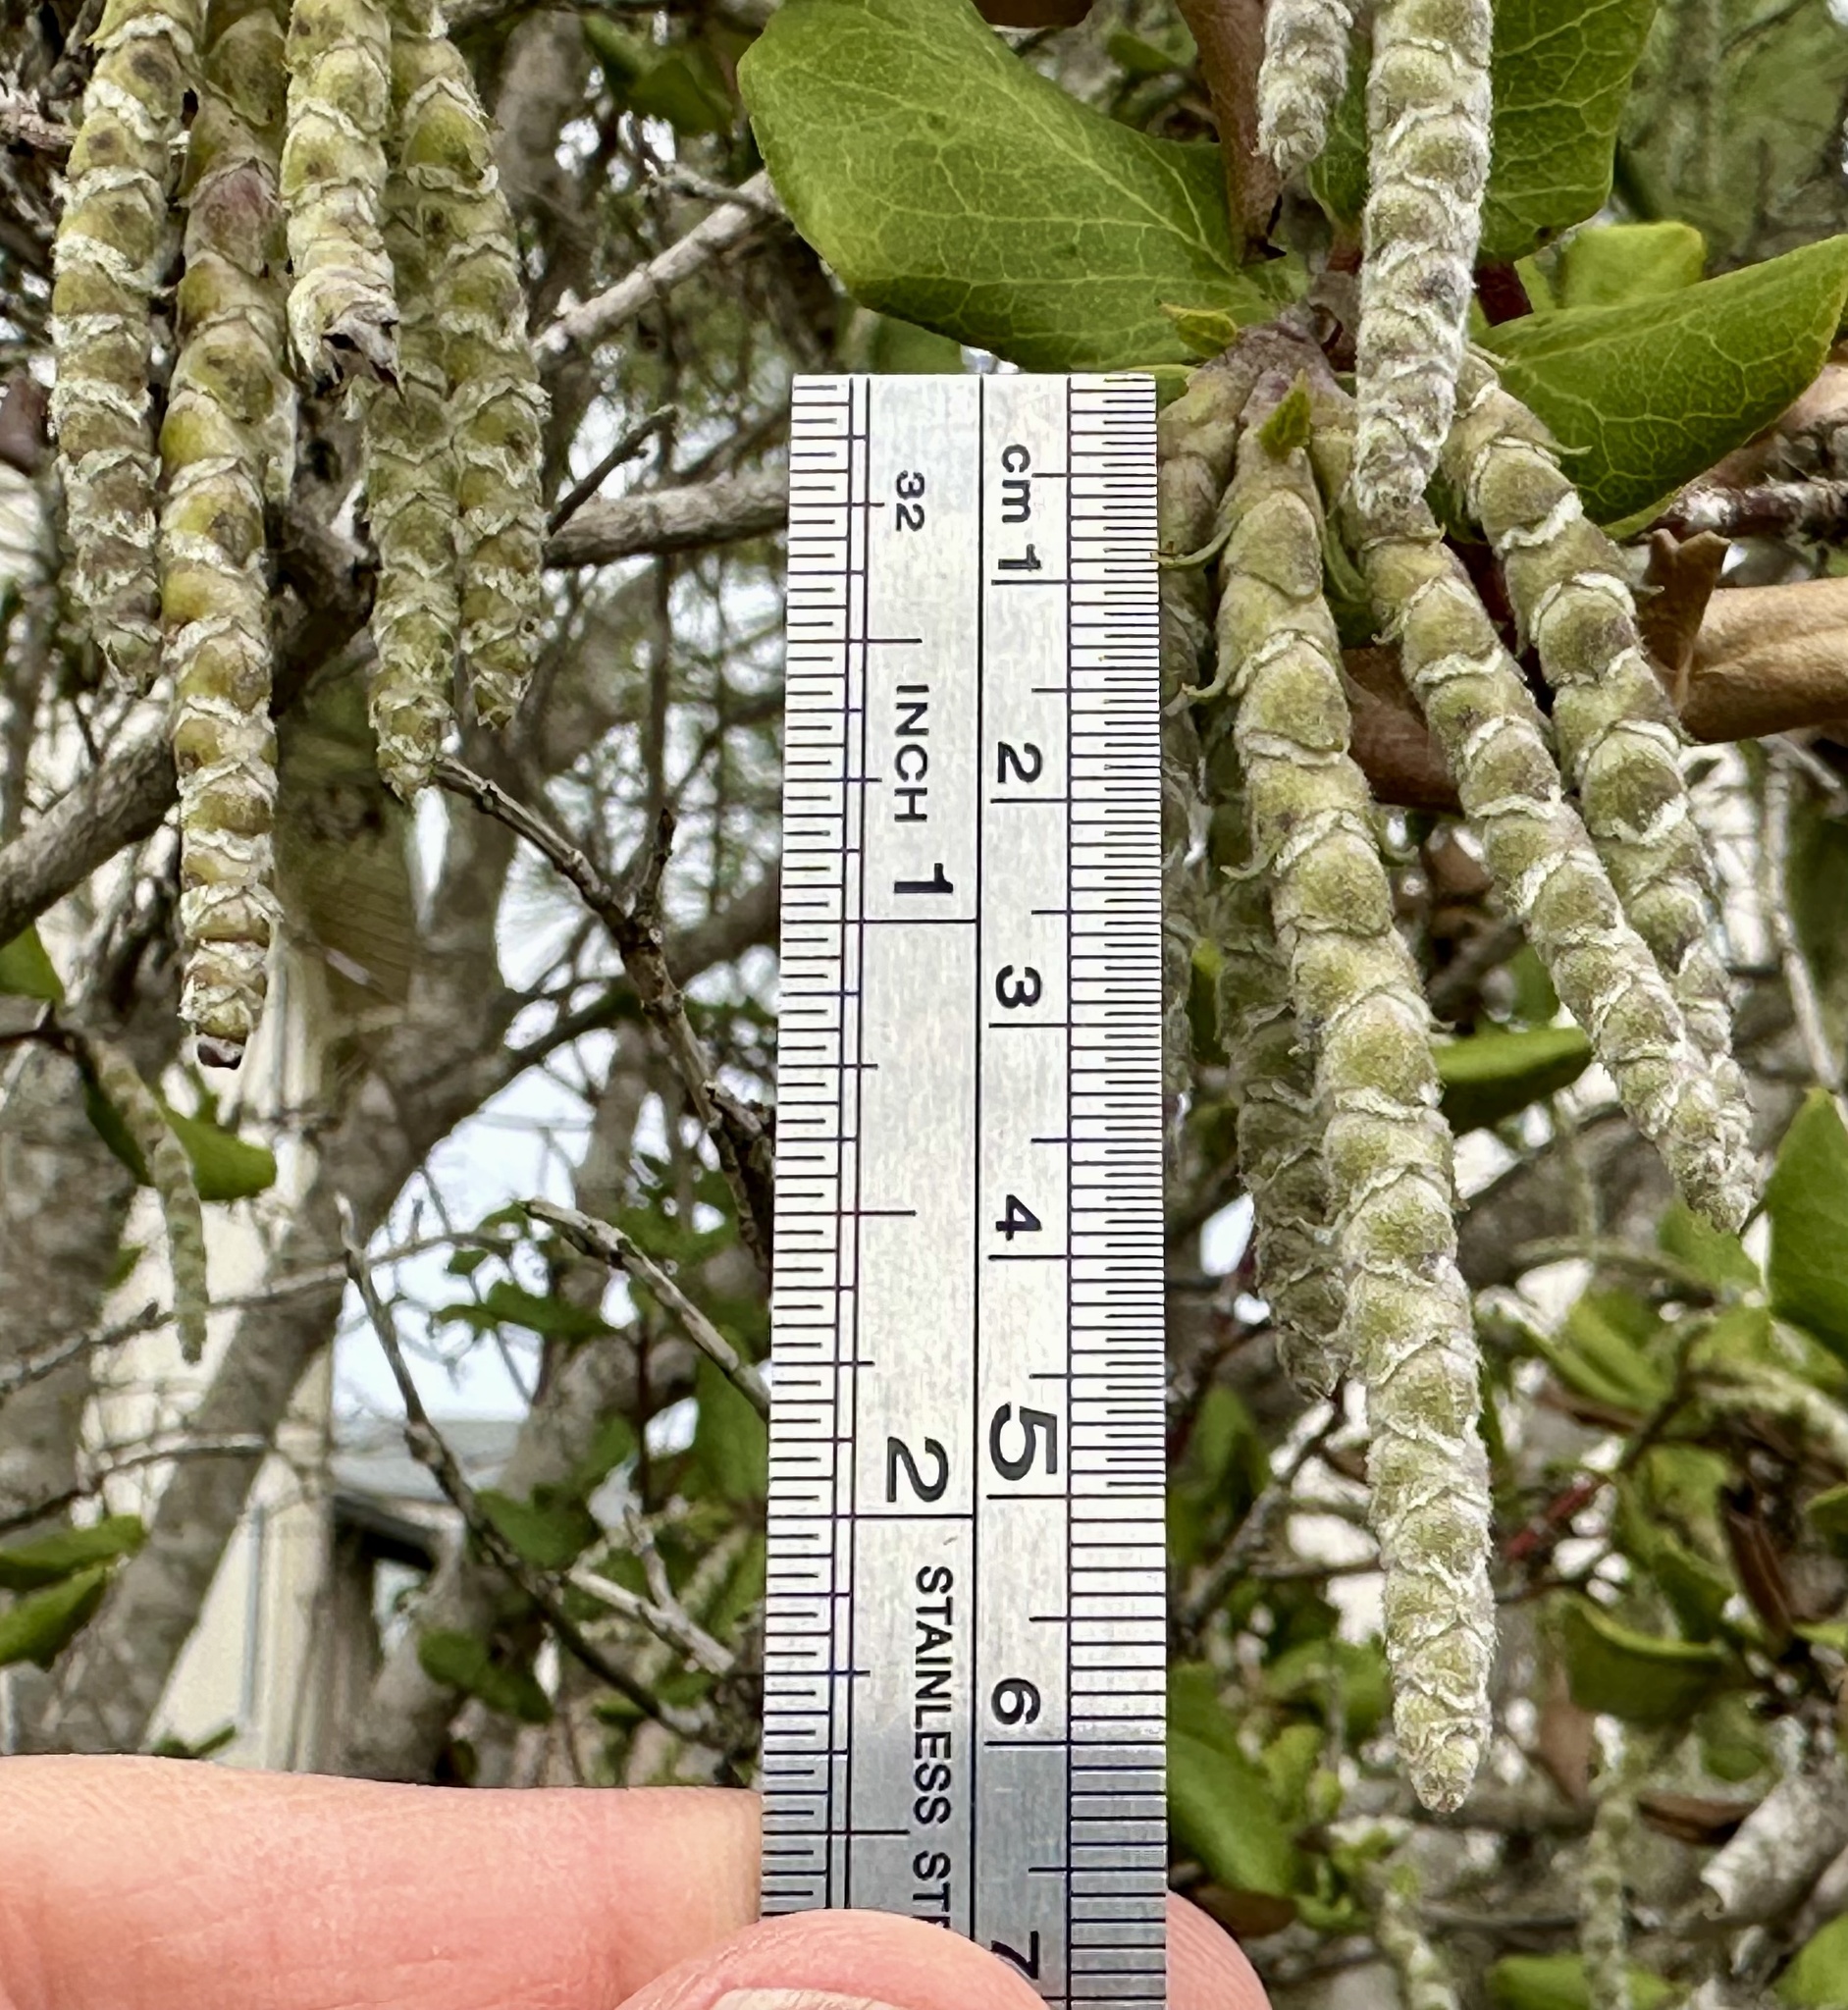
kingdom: Plantae
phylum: Tracheophyta
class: Magnoliopsida
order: Garryales
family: Garryaceae
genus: Garrya
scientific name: Garrya elliptica
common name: Silk-tassel
